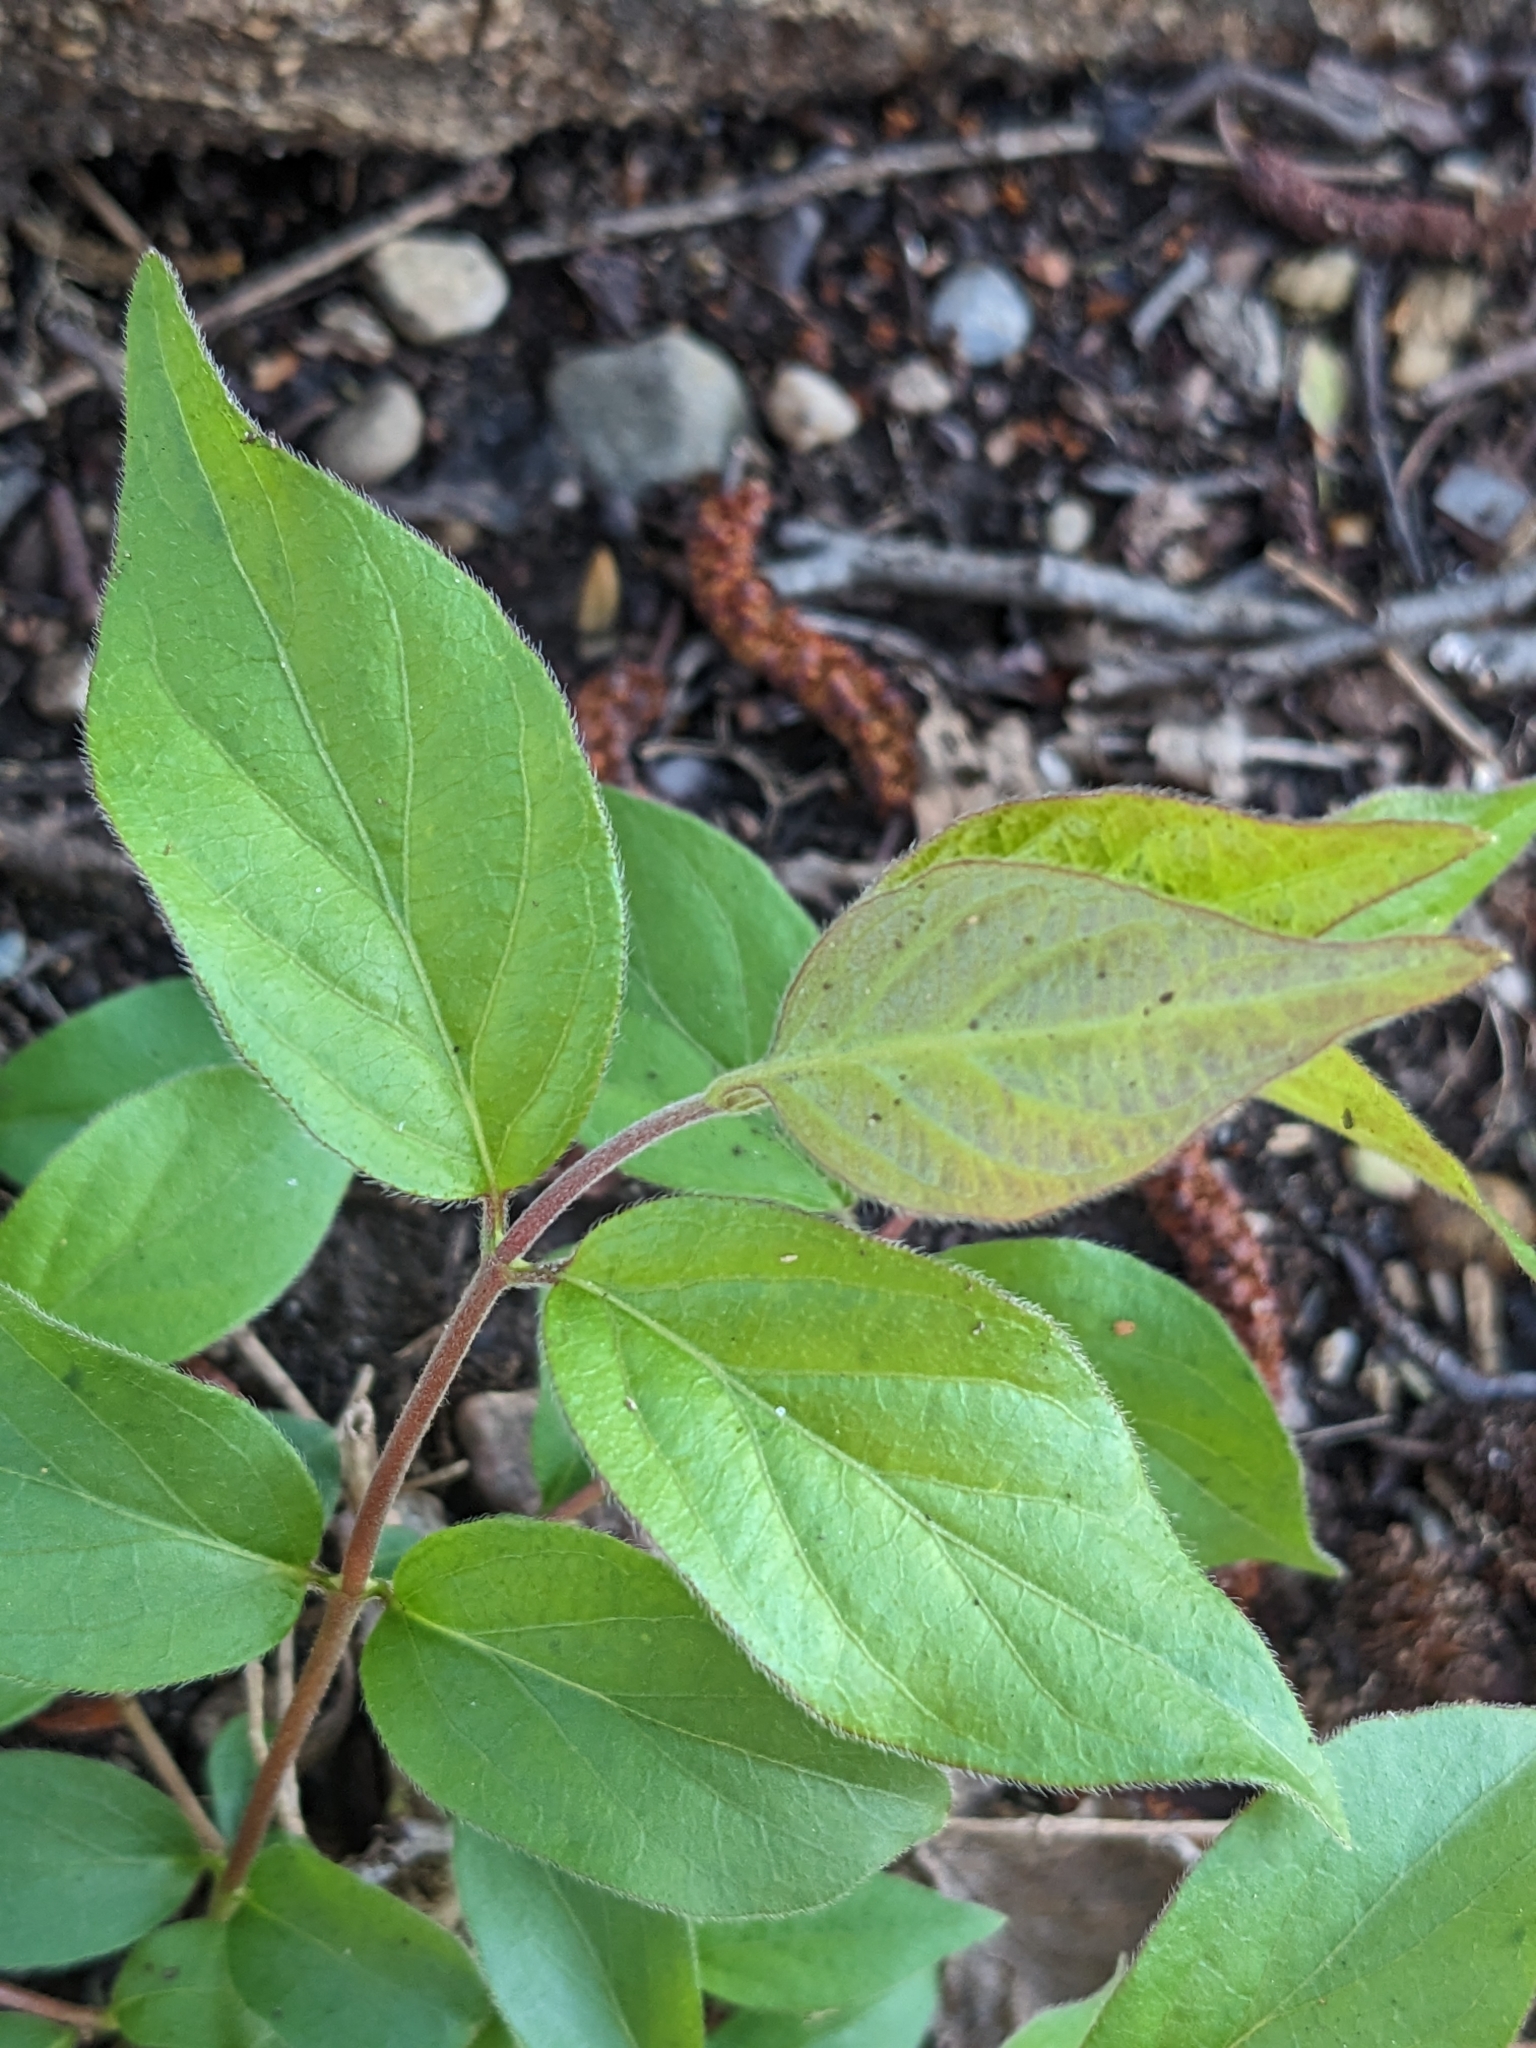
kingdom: Plantae
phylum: Tracheophyta
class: Magnoliopsida
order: Dipsacales
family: Caprifoliaceae
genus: Lonicera
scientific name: Lonicera maackii
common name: Amur honeysuckle
